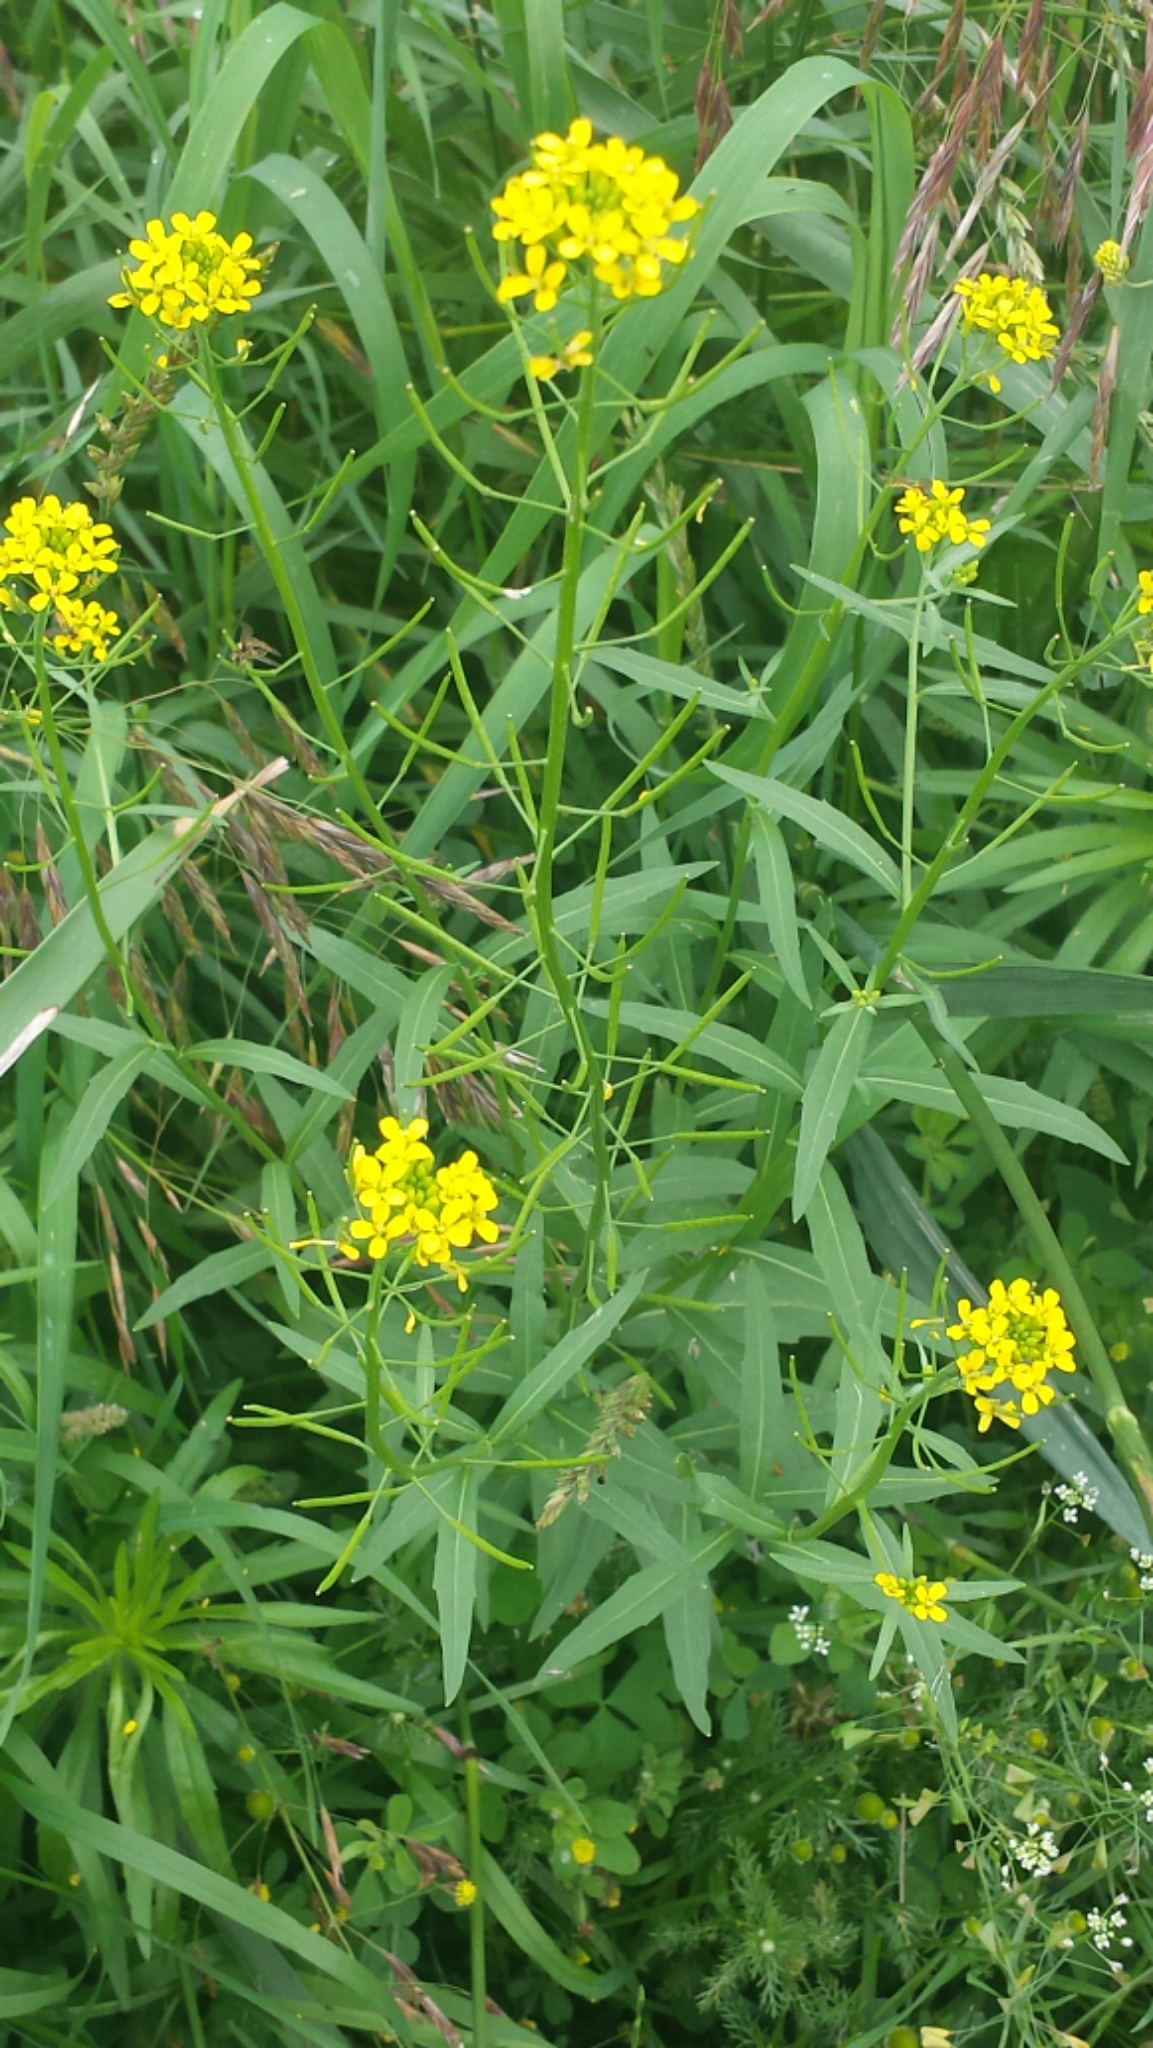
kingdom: Plantae
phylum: Tracheophyta
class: Magnoliopsida
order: Brassicales
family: Brassicaceae
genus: Erysimum
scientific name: Erysimum cheiranthoides
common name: Treacle mustard
